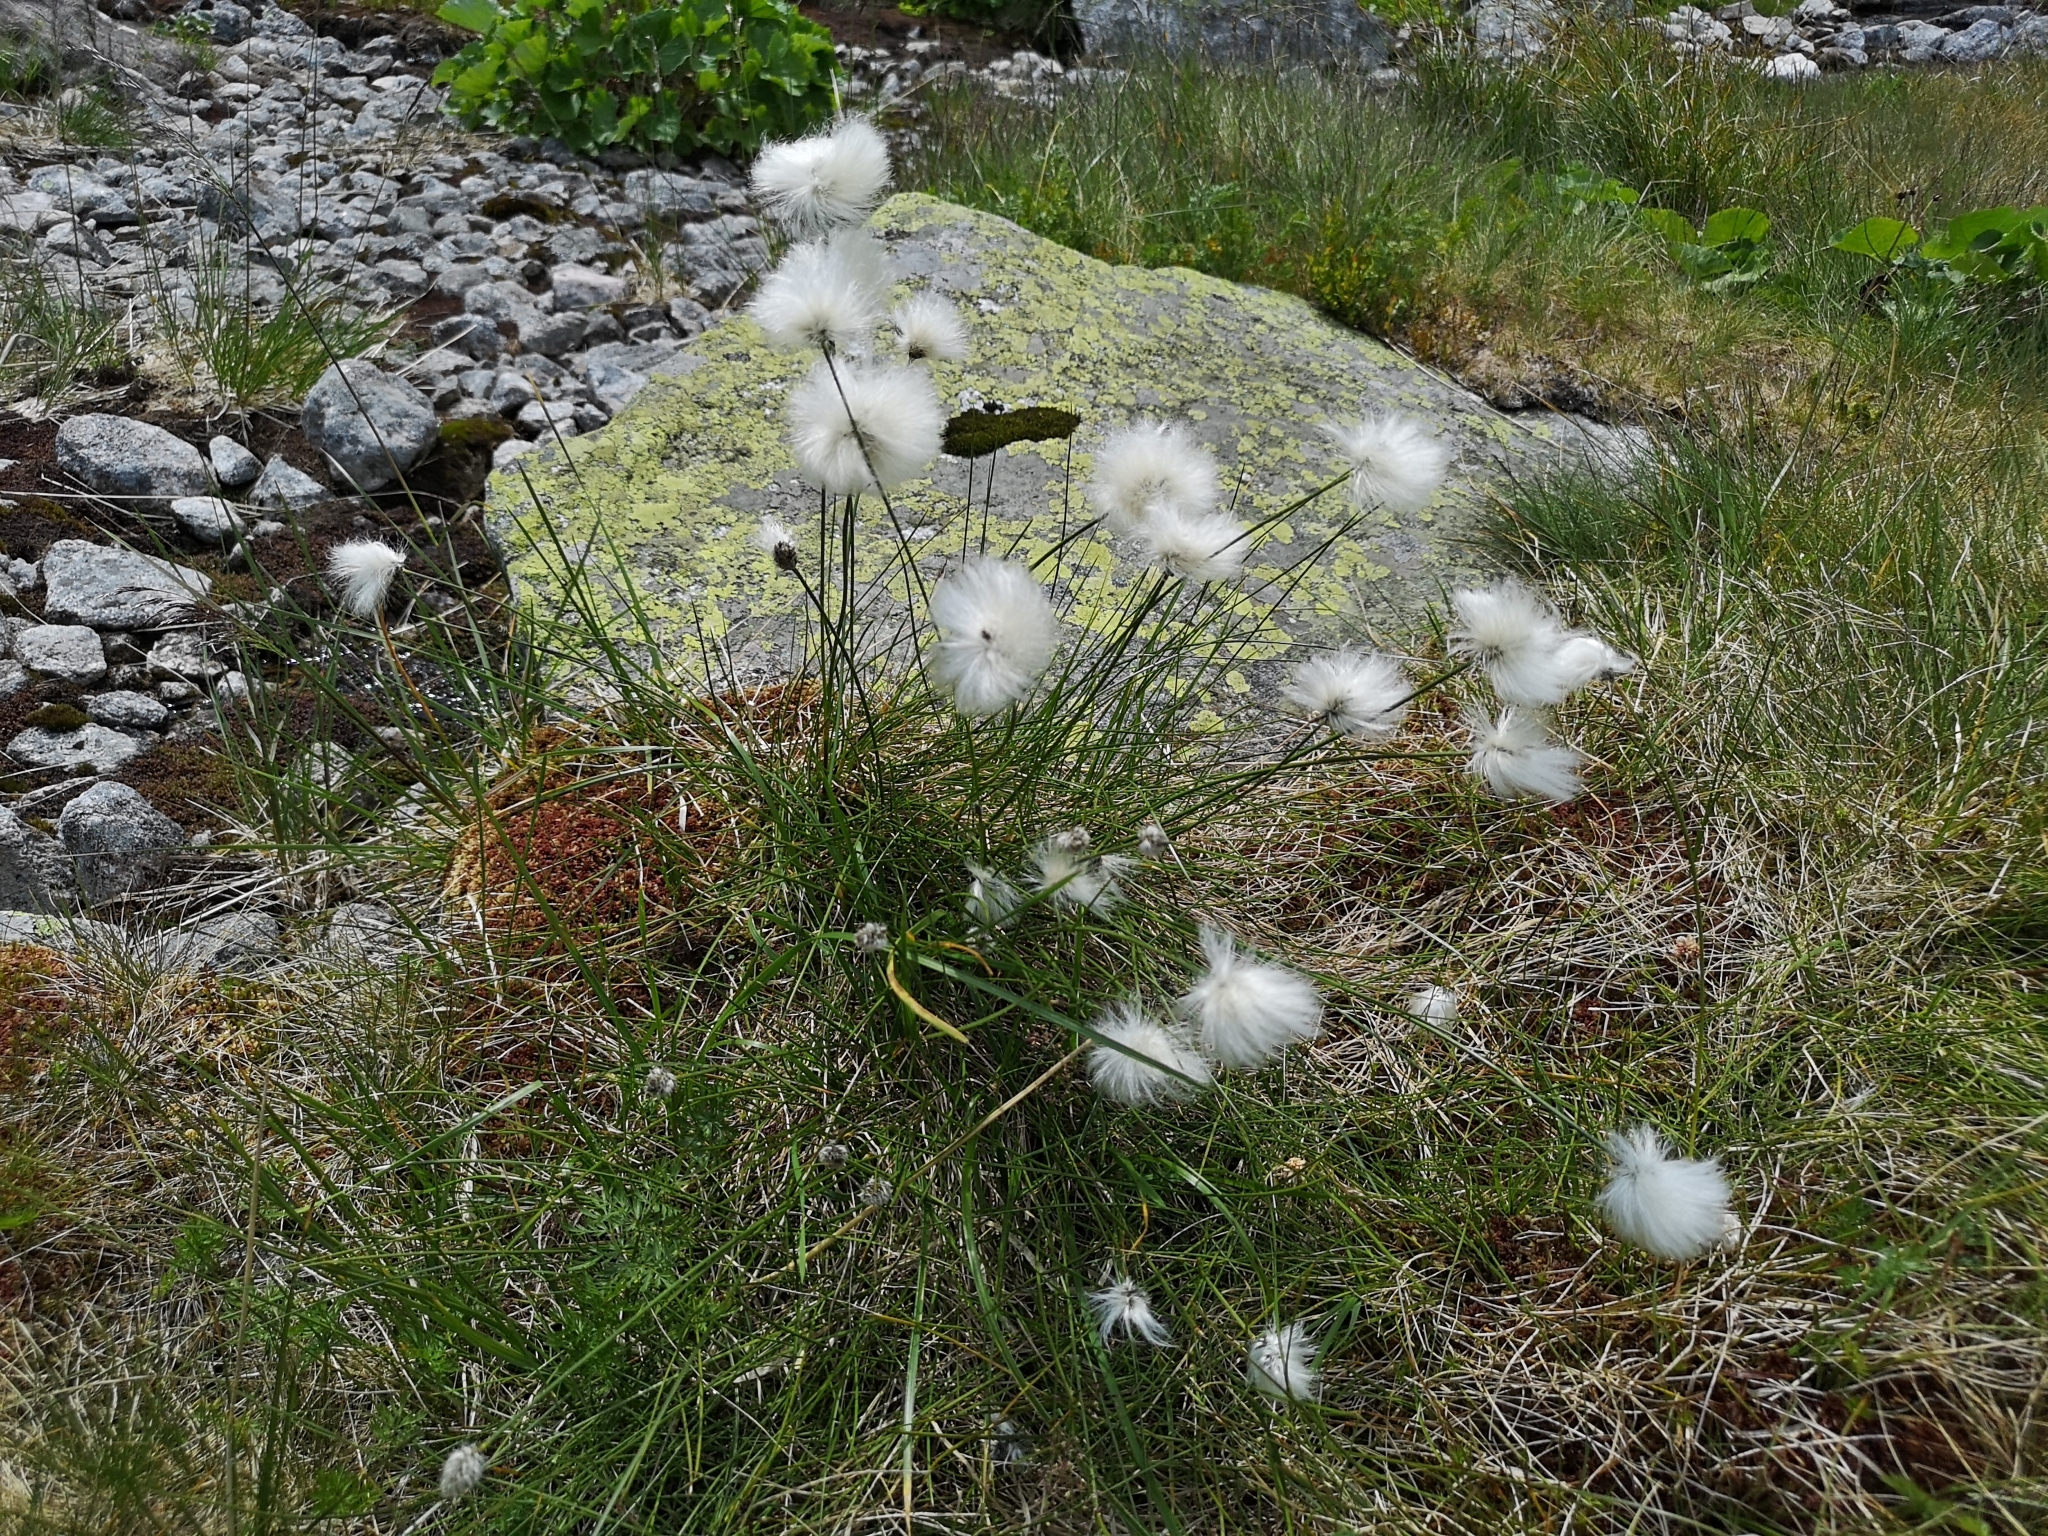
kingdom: Plantae
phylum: Tracheophyta
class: Liliopsida
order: Poales
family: Cyperaceae
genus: Eriophorum
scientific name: Eriophorum vaginatum
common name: Hare's-tail cottongrass
